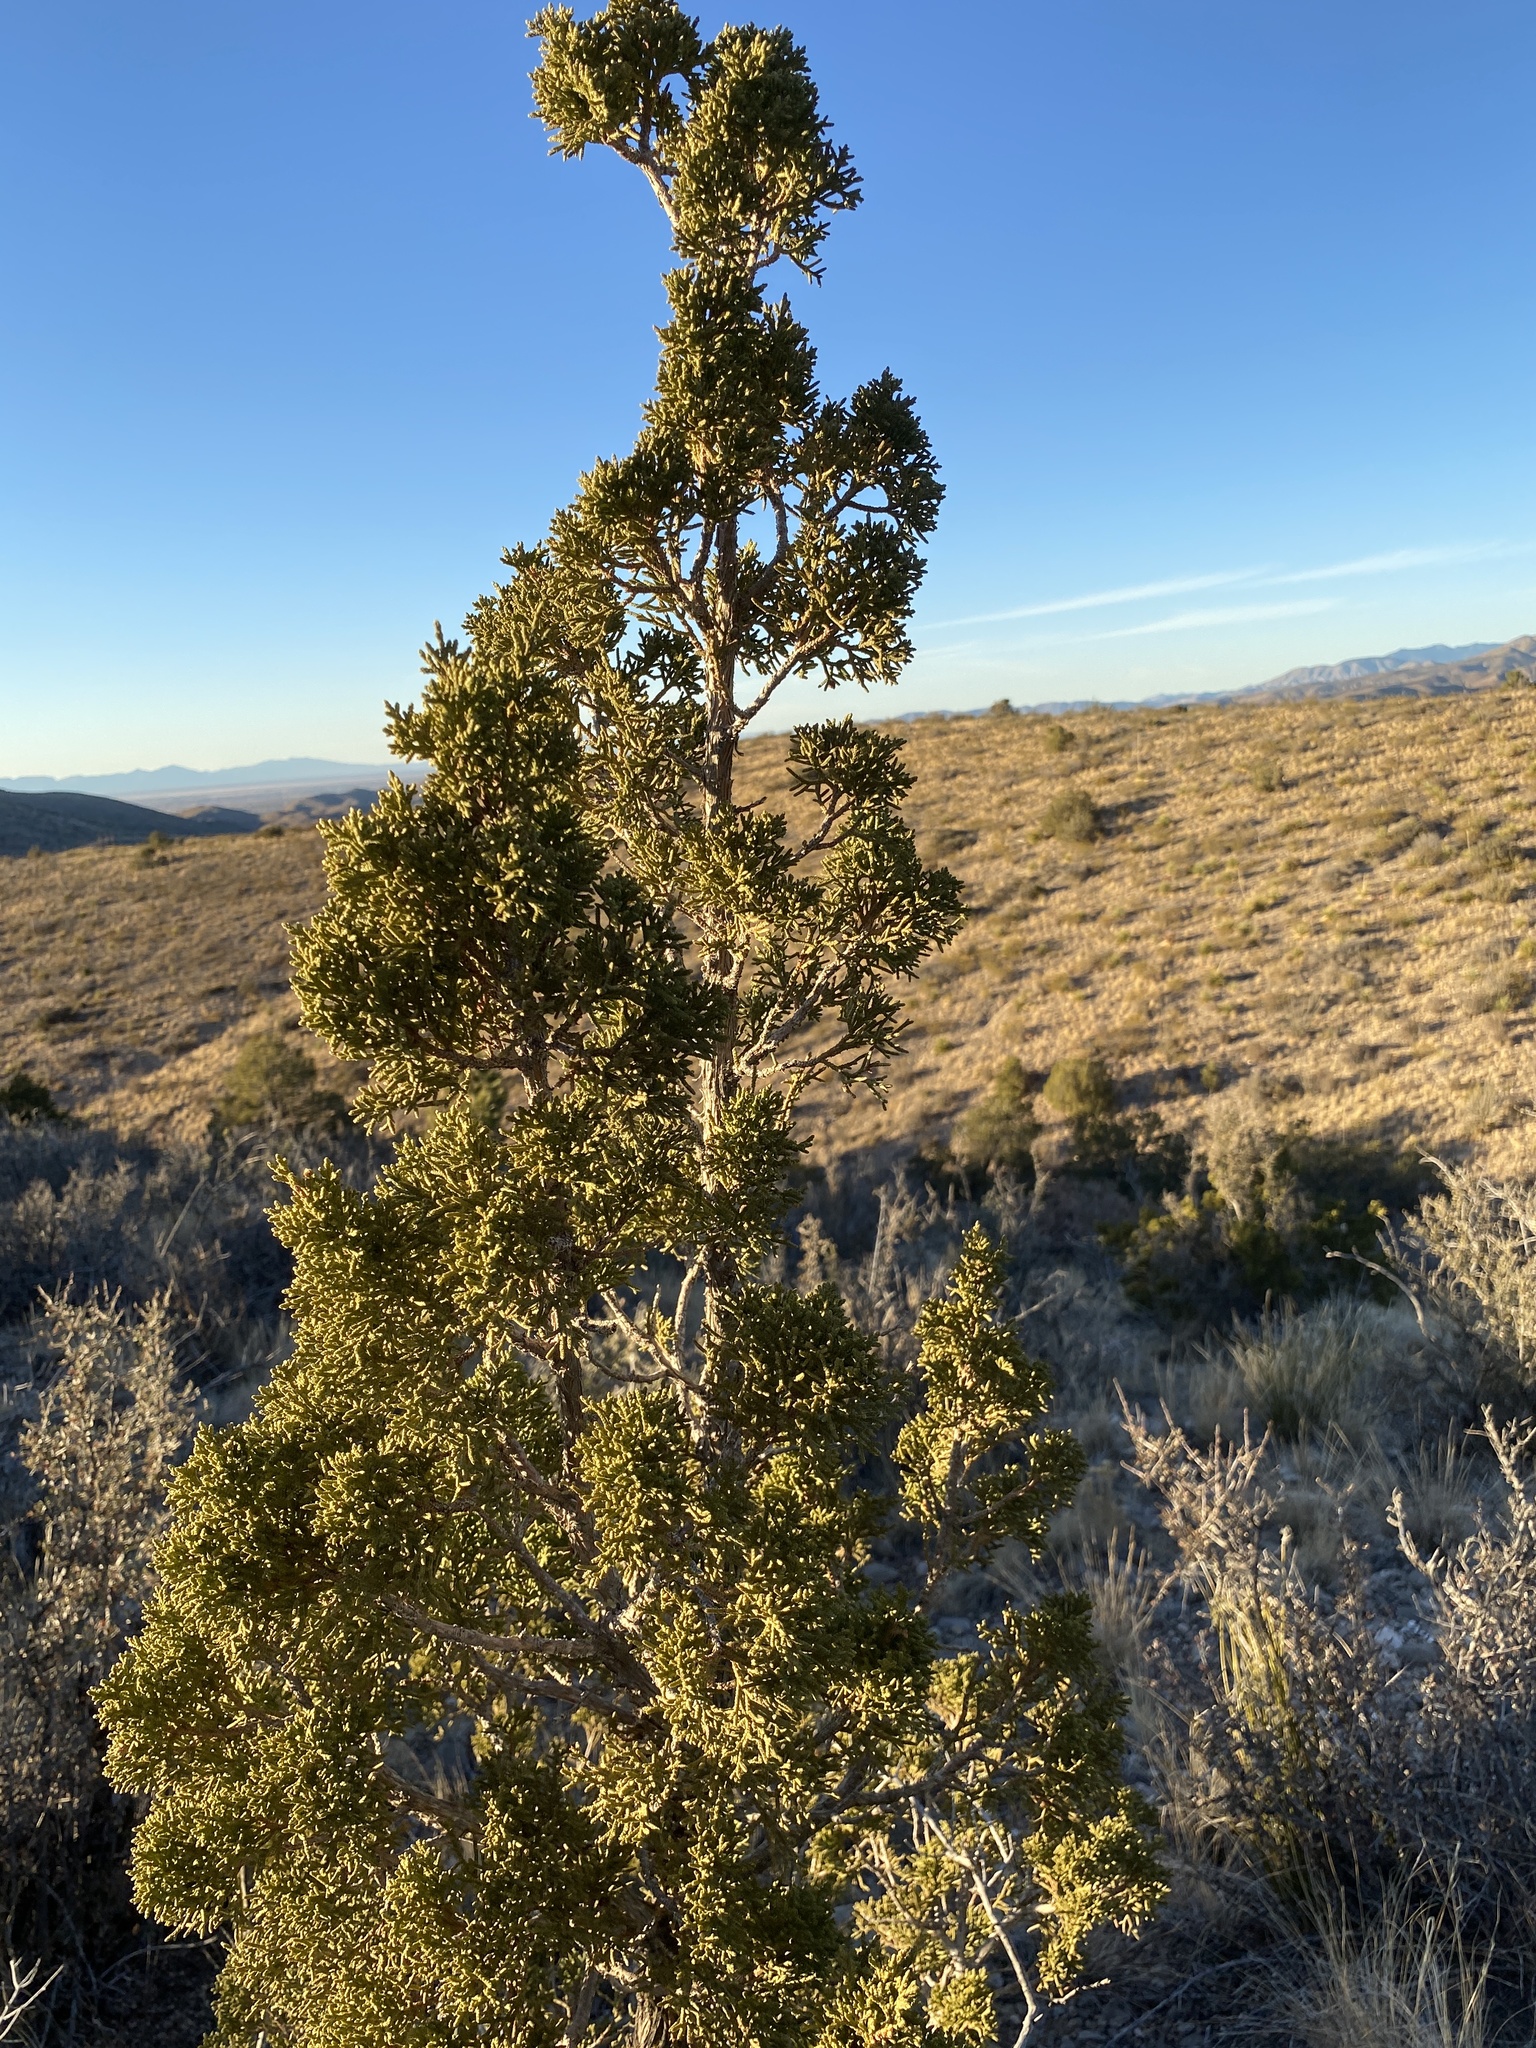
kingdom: Plantae
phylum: Tracheophyta
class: Pinopsida
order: Pinales
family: Cupressaceae
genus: Juniperus
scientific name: Juniperus monosperma
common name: One-seed juniper
